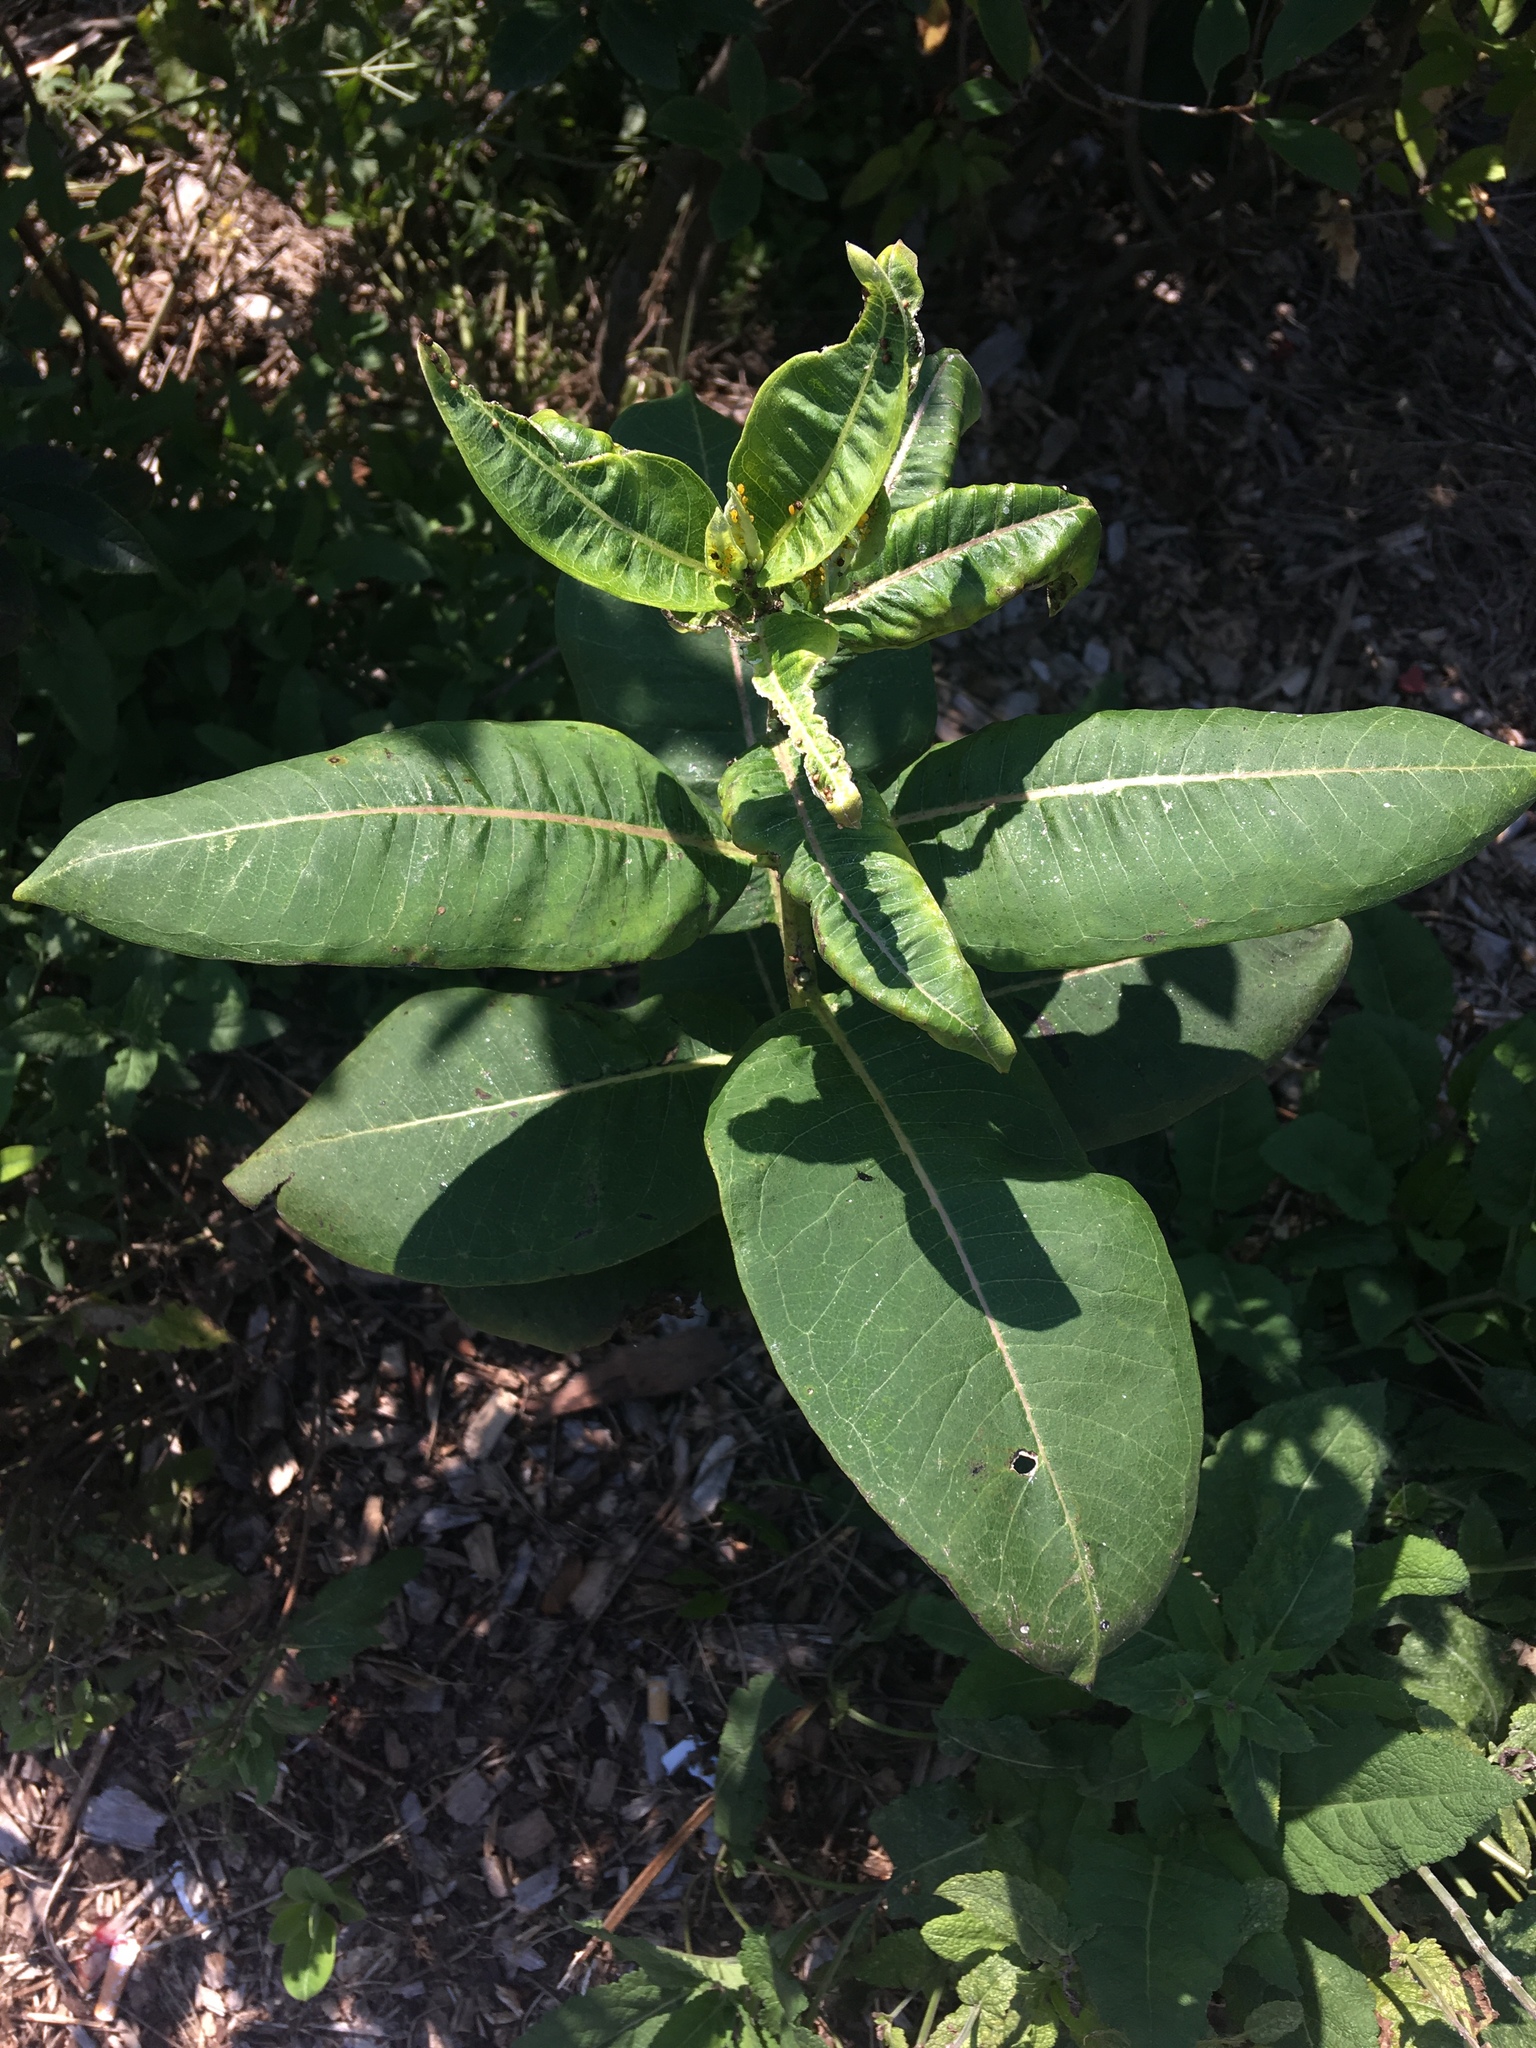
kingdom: Plantae
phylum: Tracheophyta
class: Magnoliopsida
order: Gentianales
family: Apocynaceae
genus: Asclepias
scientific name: Asclepias syriaca
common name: Common milkweed
